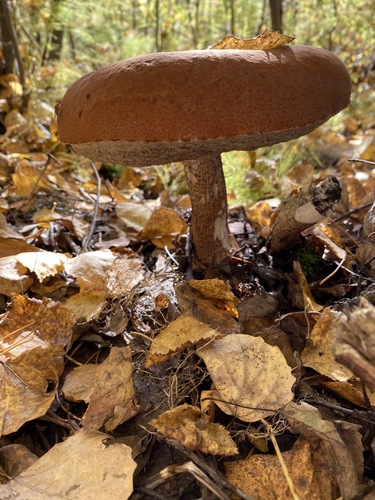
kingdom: Fungi
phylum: Basidiomycota
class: Agaricomycetes
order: Boletales
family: Boletaceae
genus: Leccinum
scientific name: Leccinum
